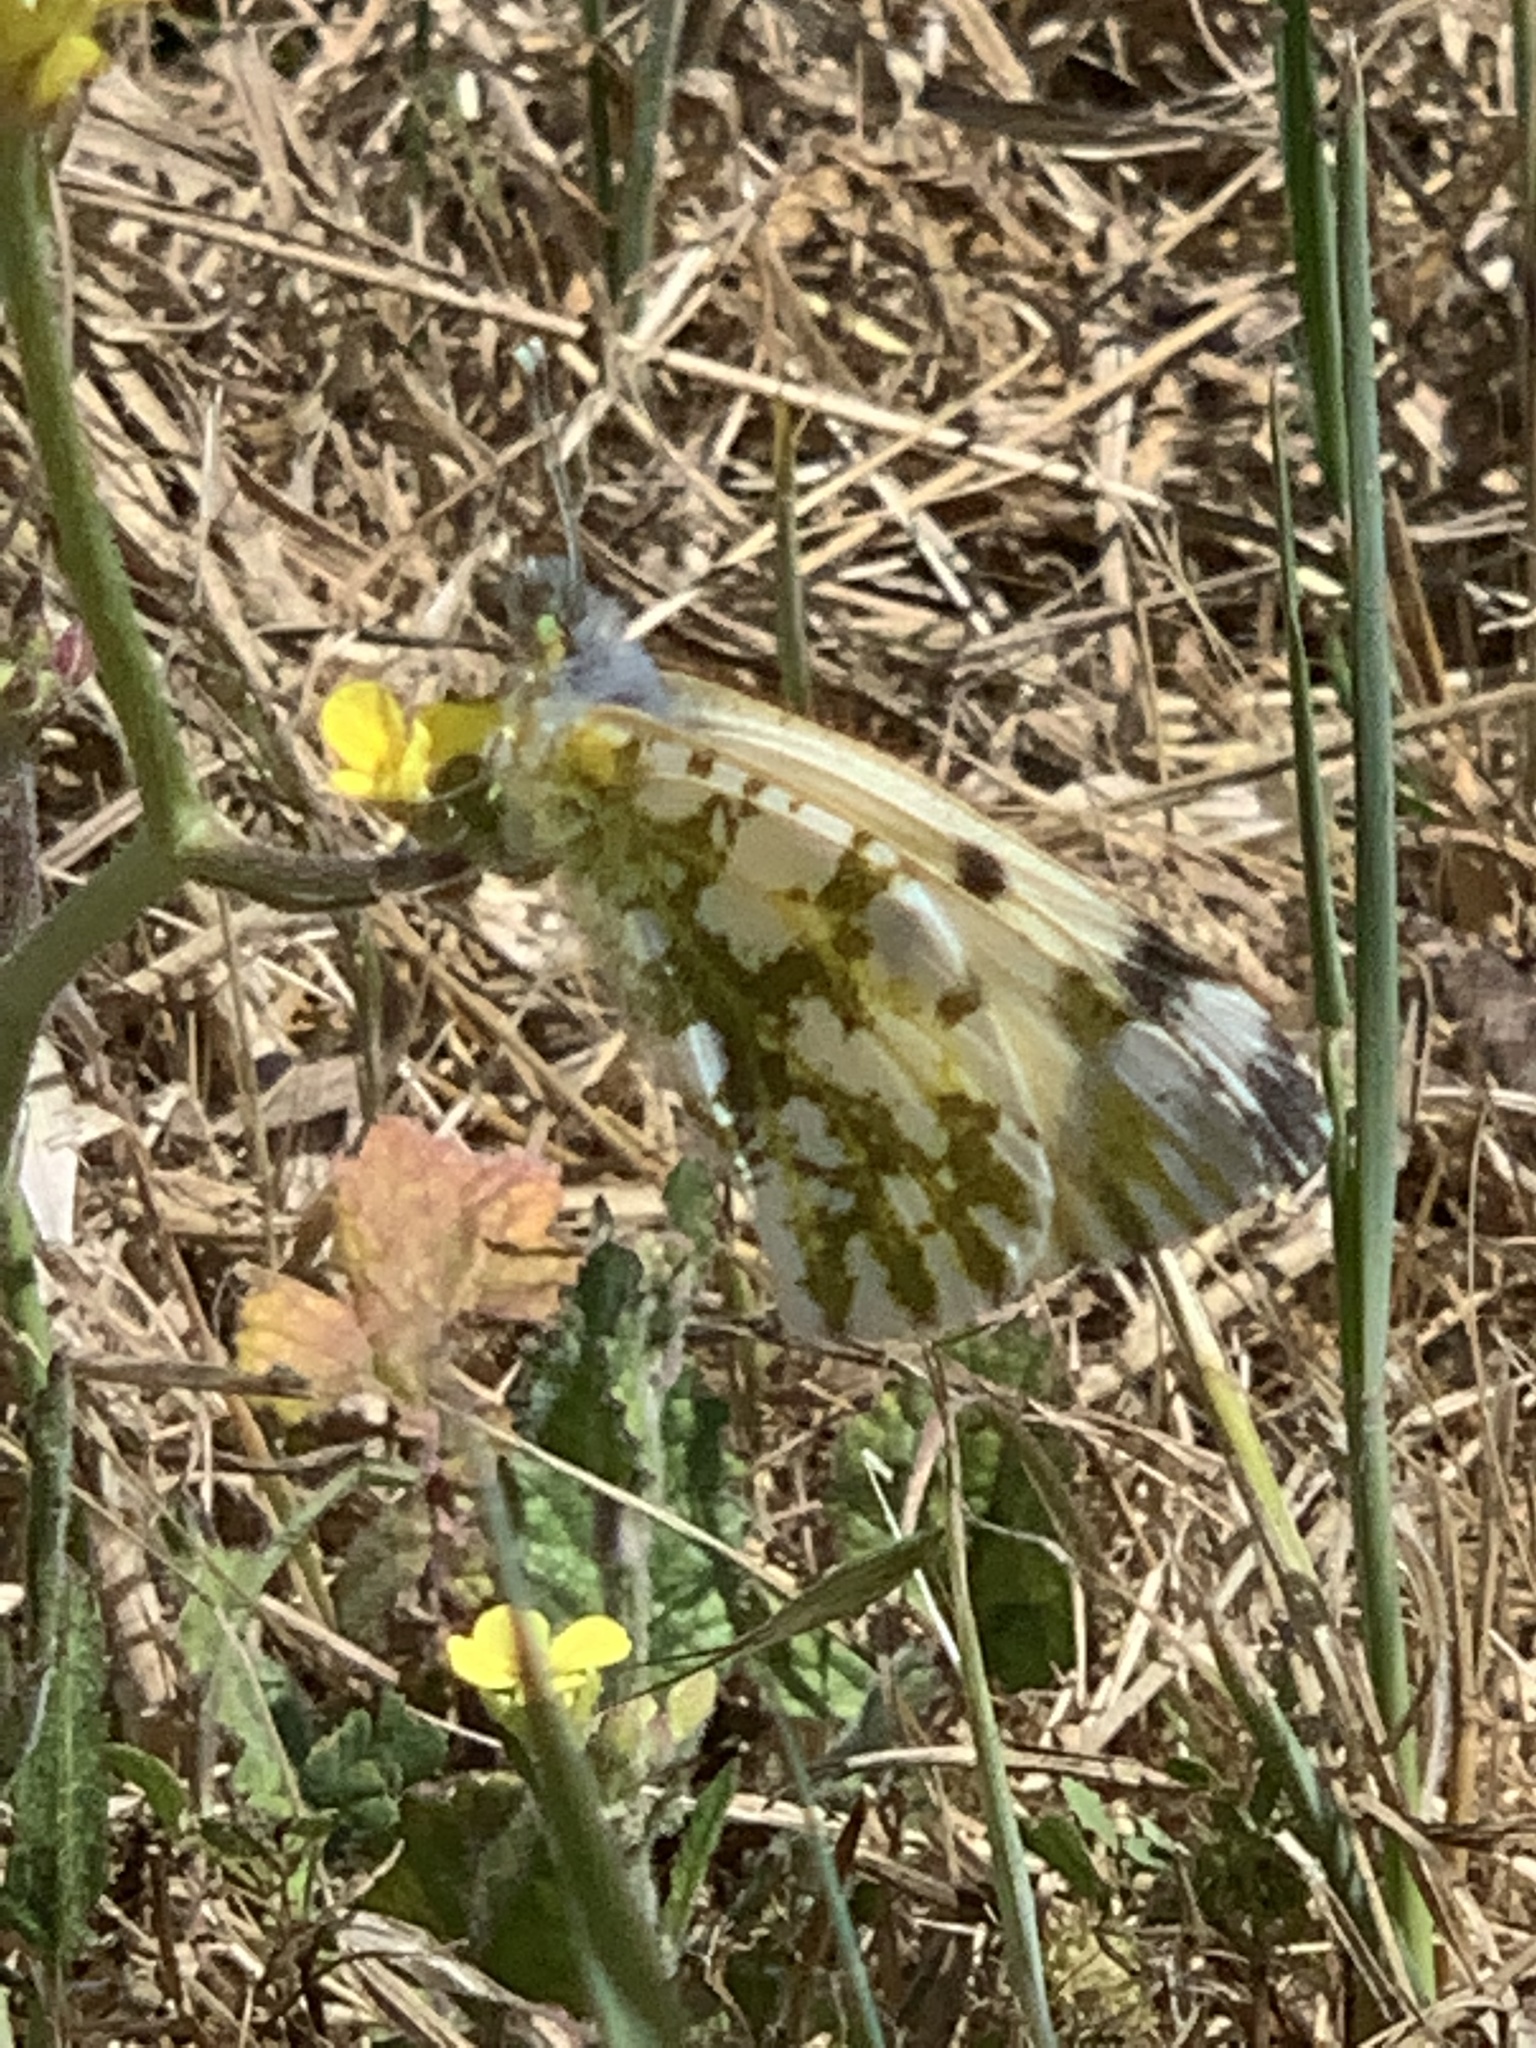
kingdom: Animalia
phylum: Arthropoda
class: Insecta
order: Lepidoptera
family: Pieridae
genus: Euchloe
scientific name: Euchloe ausonides
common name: Creamy marblewing
